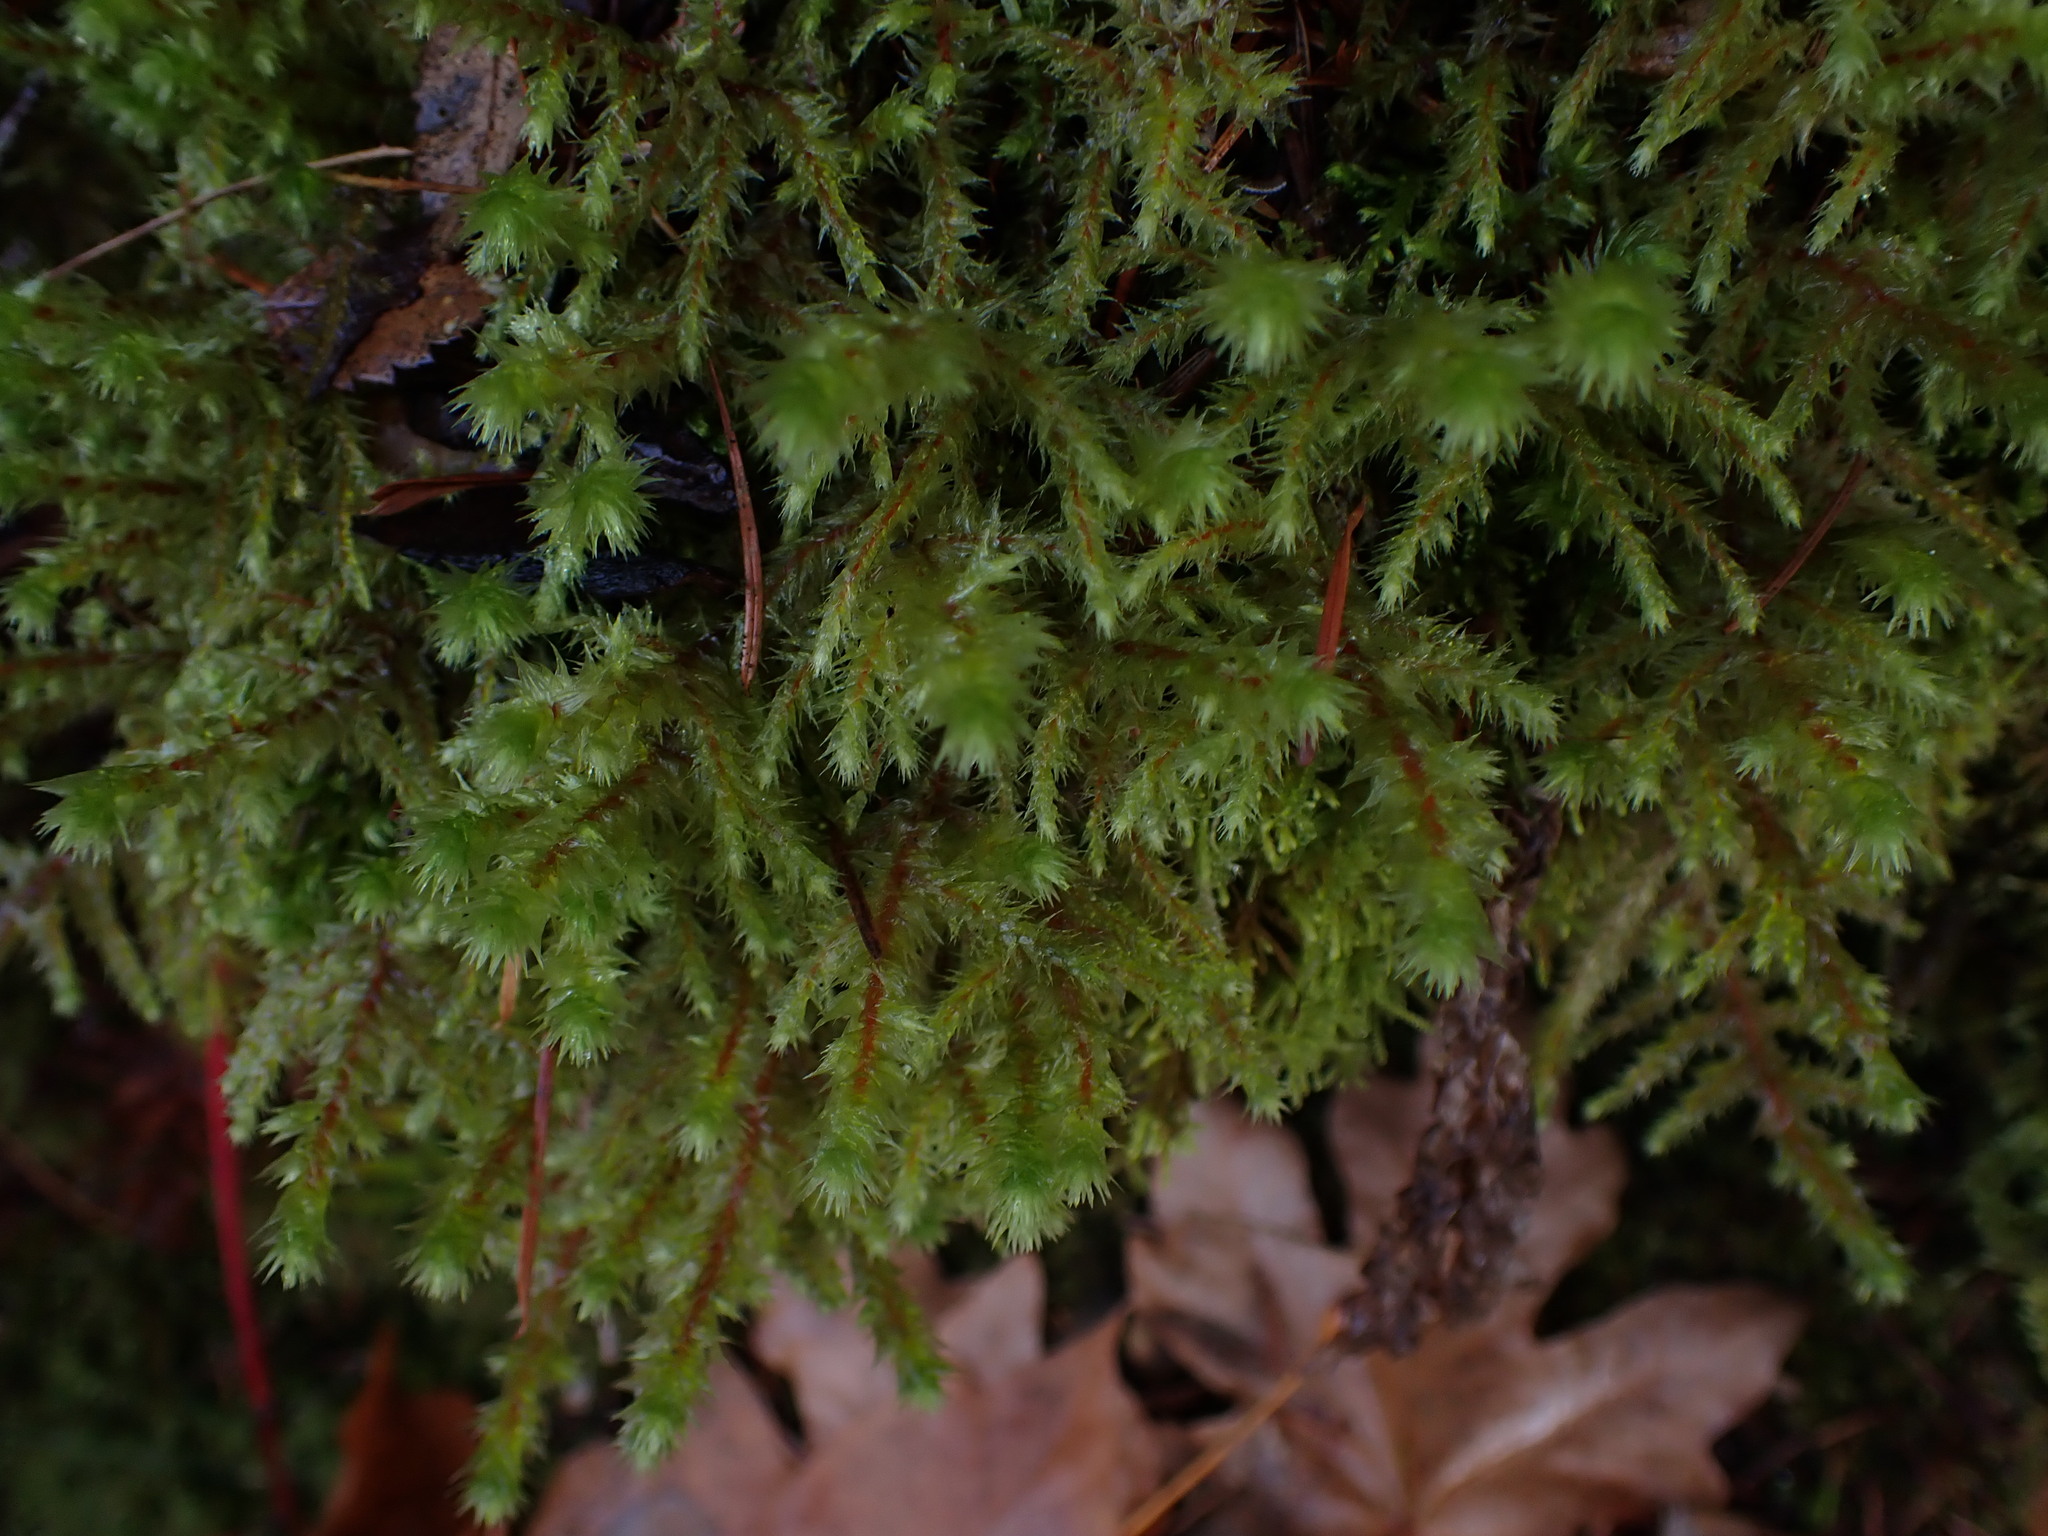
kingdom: Plantae
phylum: Bryophyta
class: Bryopsida
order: Hypnales
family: Hylocomiaceae
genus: Hylocomiadelphus
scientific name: Hylocomiadelphus triquetrus
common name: Rough goose neck moss
